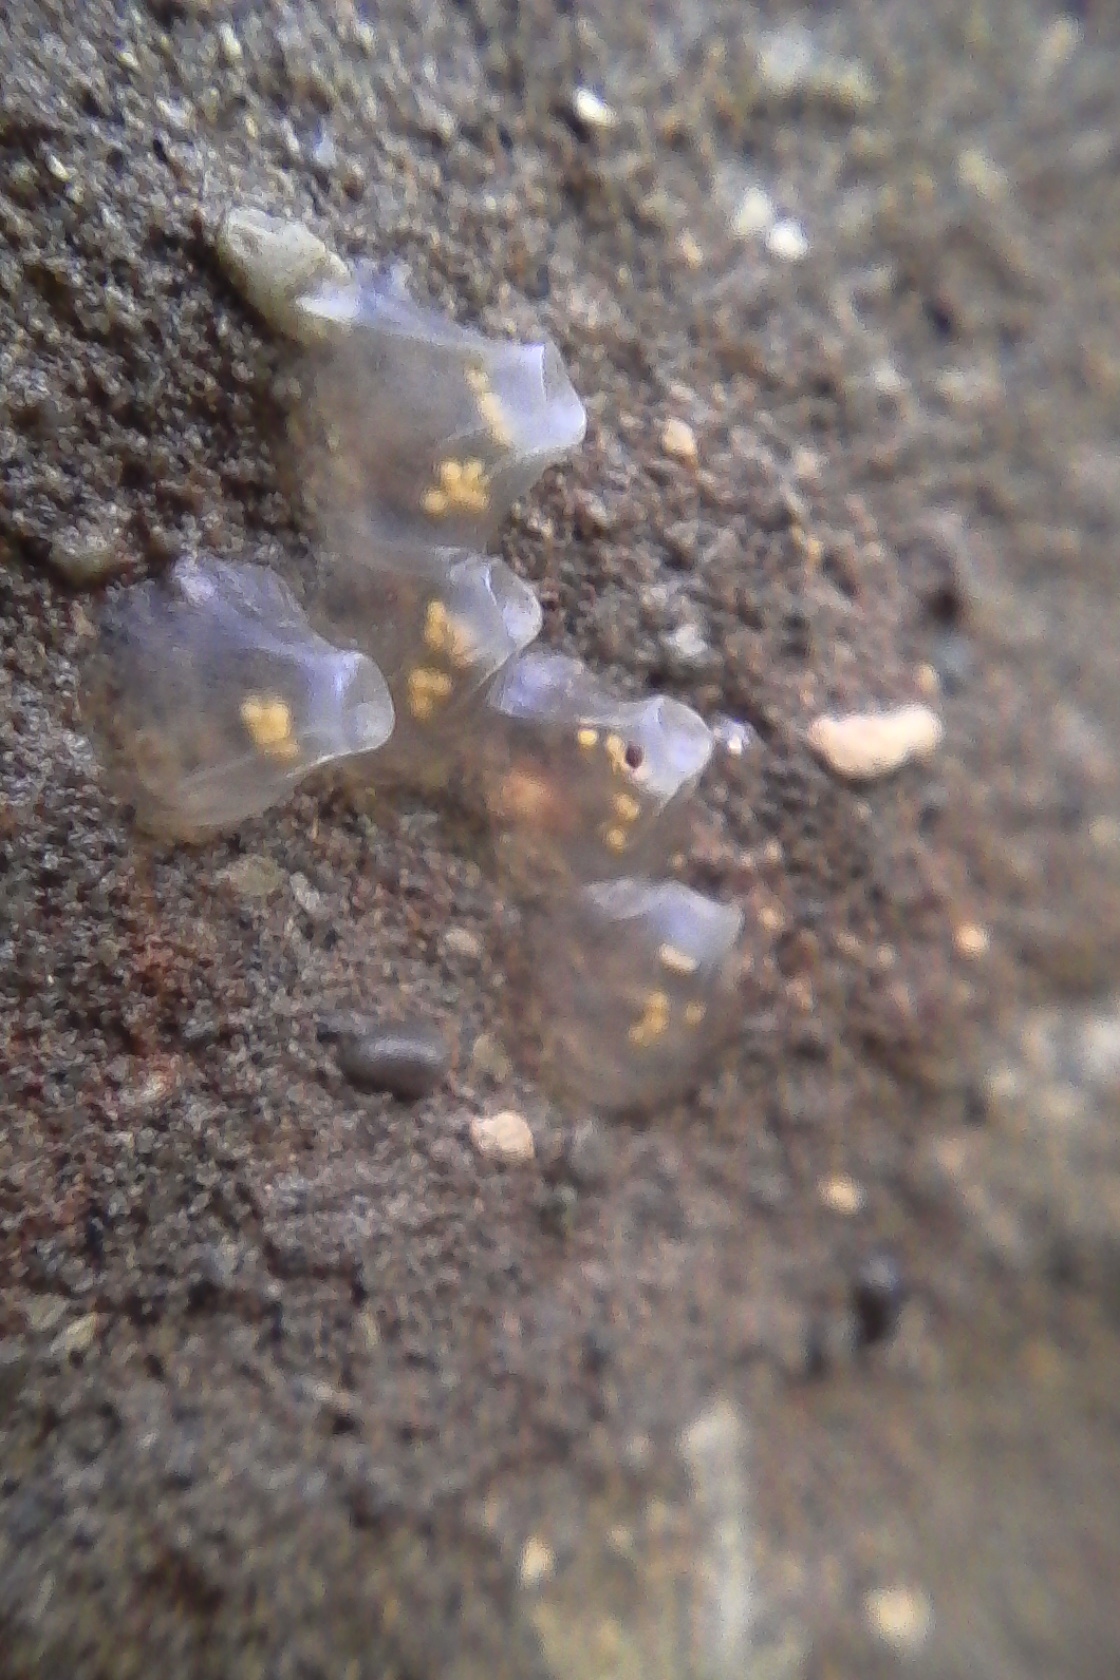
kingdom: Animalia
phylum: Mollusca
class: Gastropoda
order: Neogastropoda
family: Cominellidae
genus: Cominella
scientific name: Cominella glandiformis
